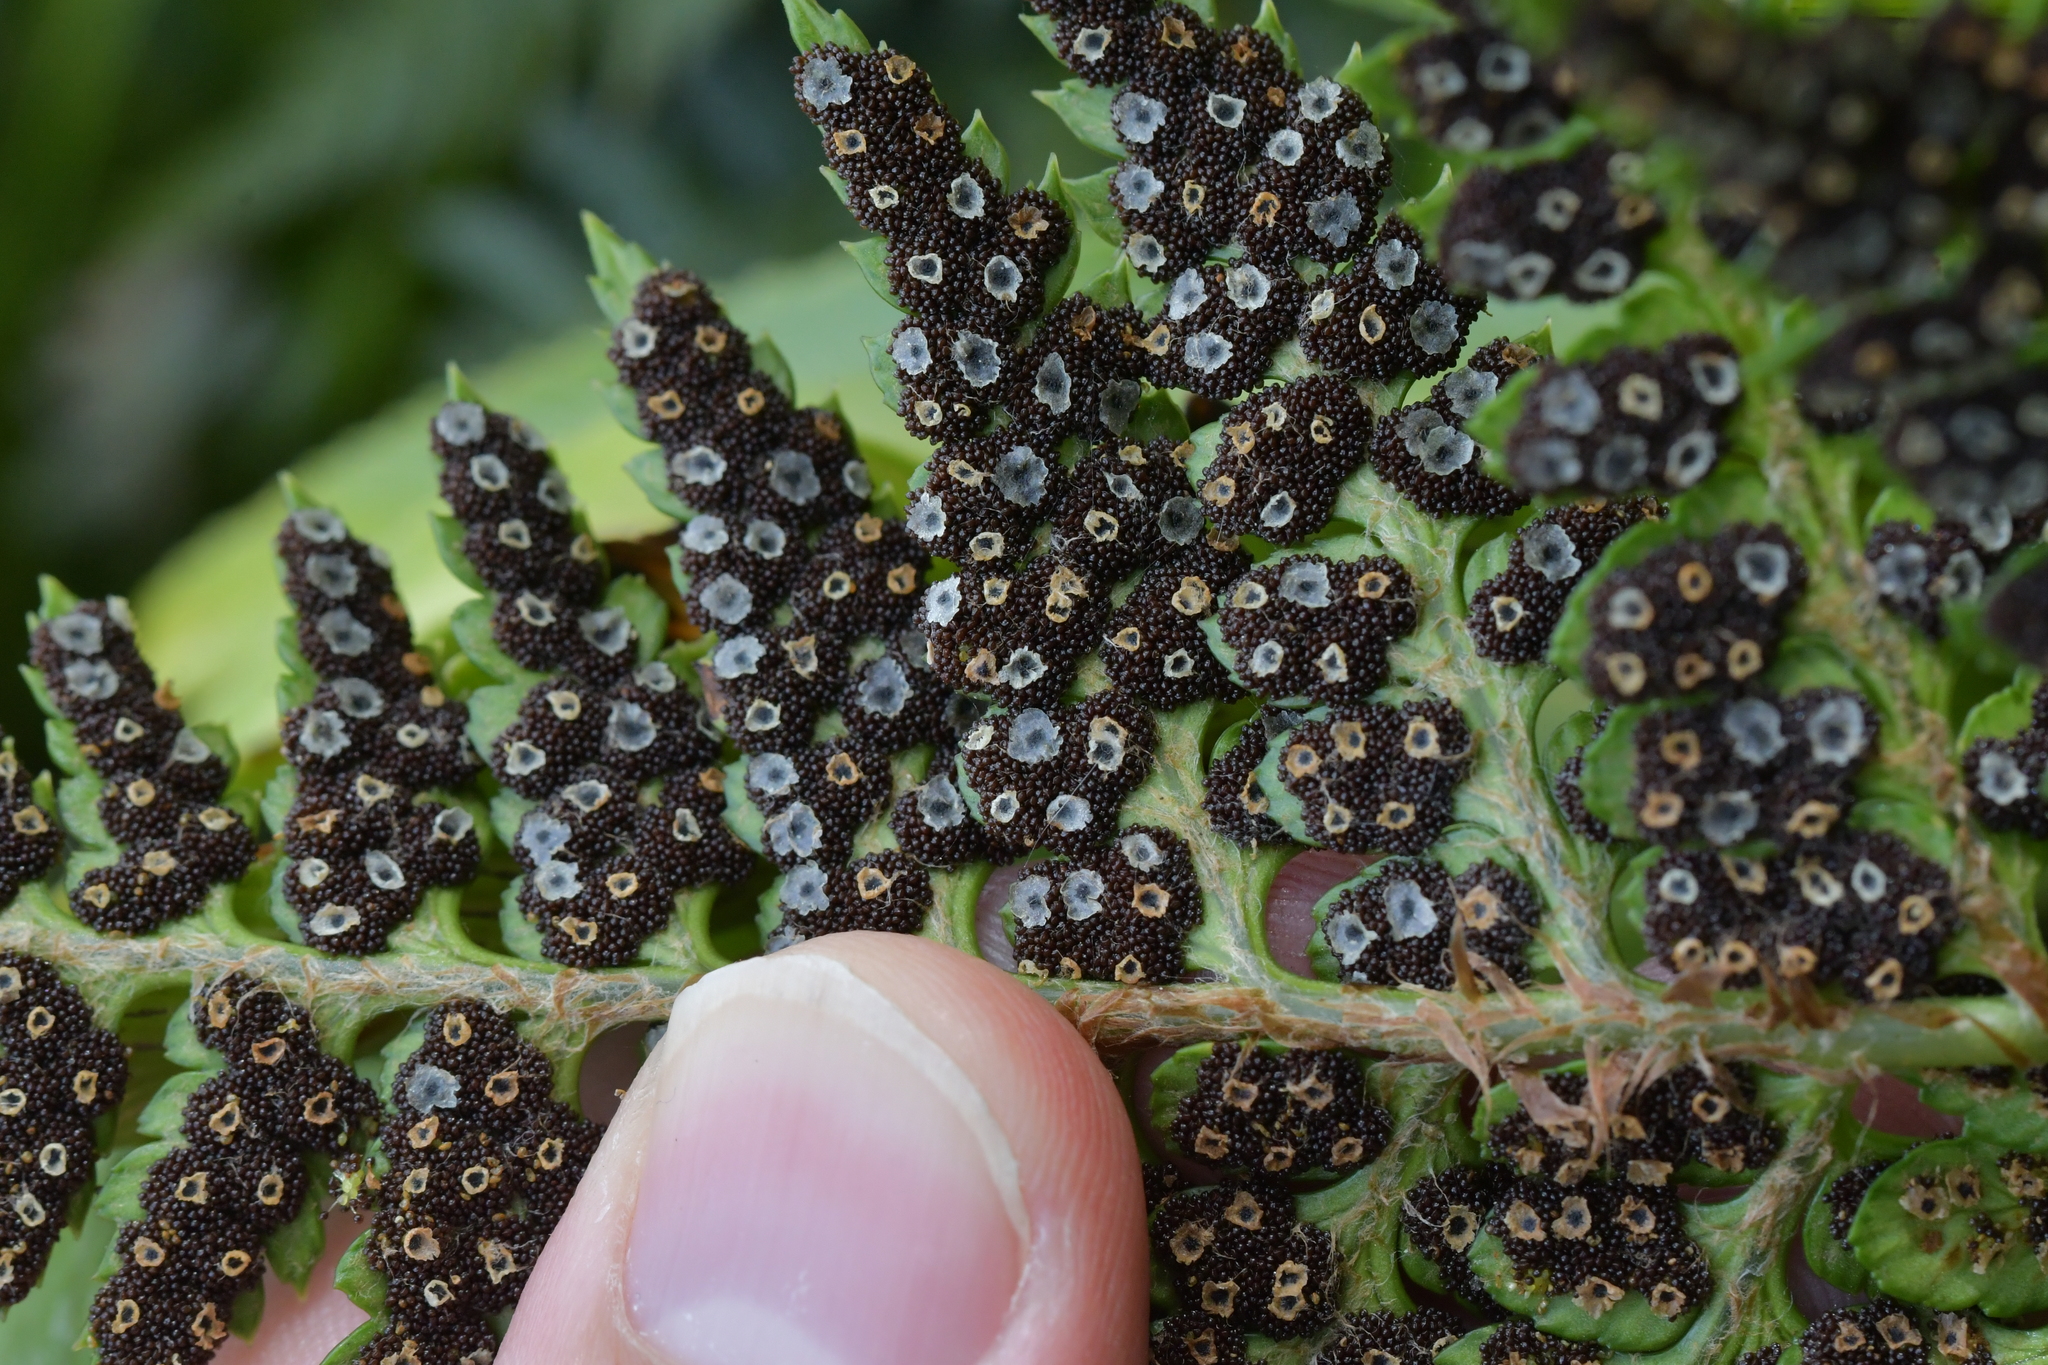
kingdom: Plantae
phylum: Tracheophyta
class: Polypodiopsida
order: Polypodiales
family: Dryopteridaceae
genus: Polystichum
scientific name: Polystichum oculatum
